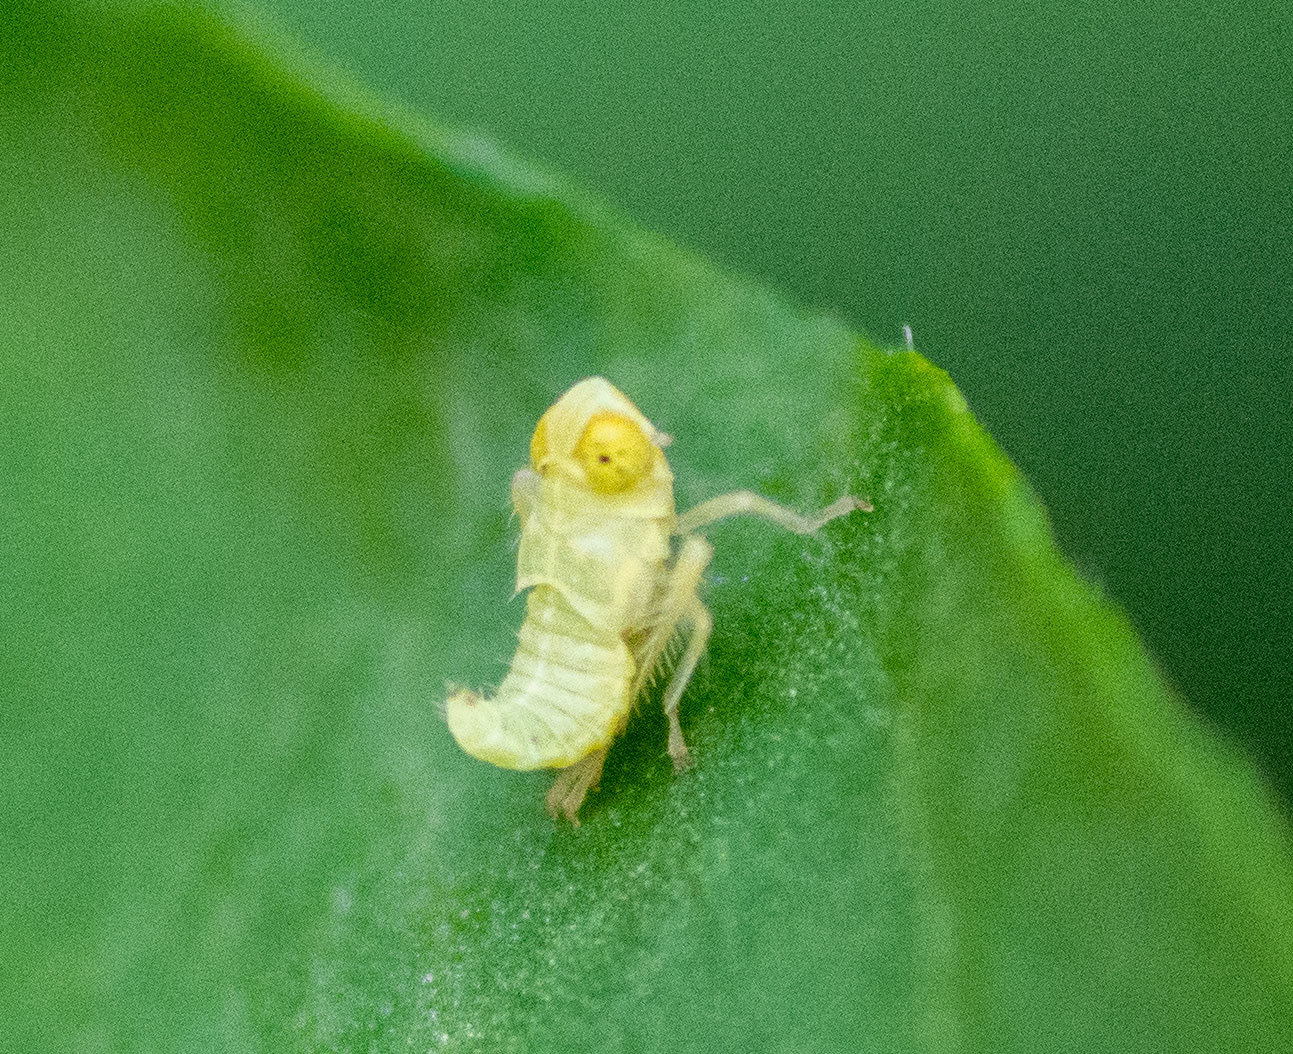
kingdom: Animalia
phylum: Arthropoda
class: Insecta
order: Hemiptera
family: Cicadellidae
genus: Jikradia
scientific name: Jikradia olitoria
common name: Coppery leafhopper
